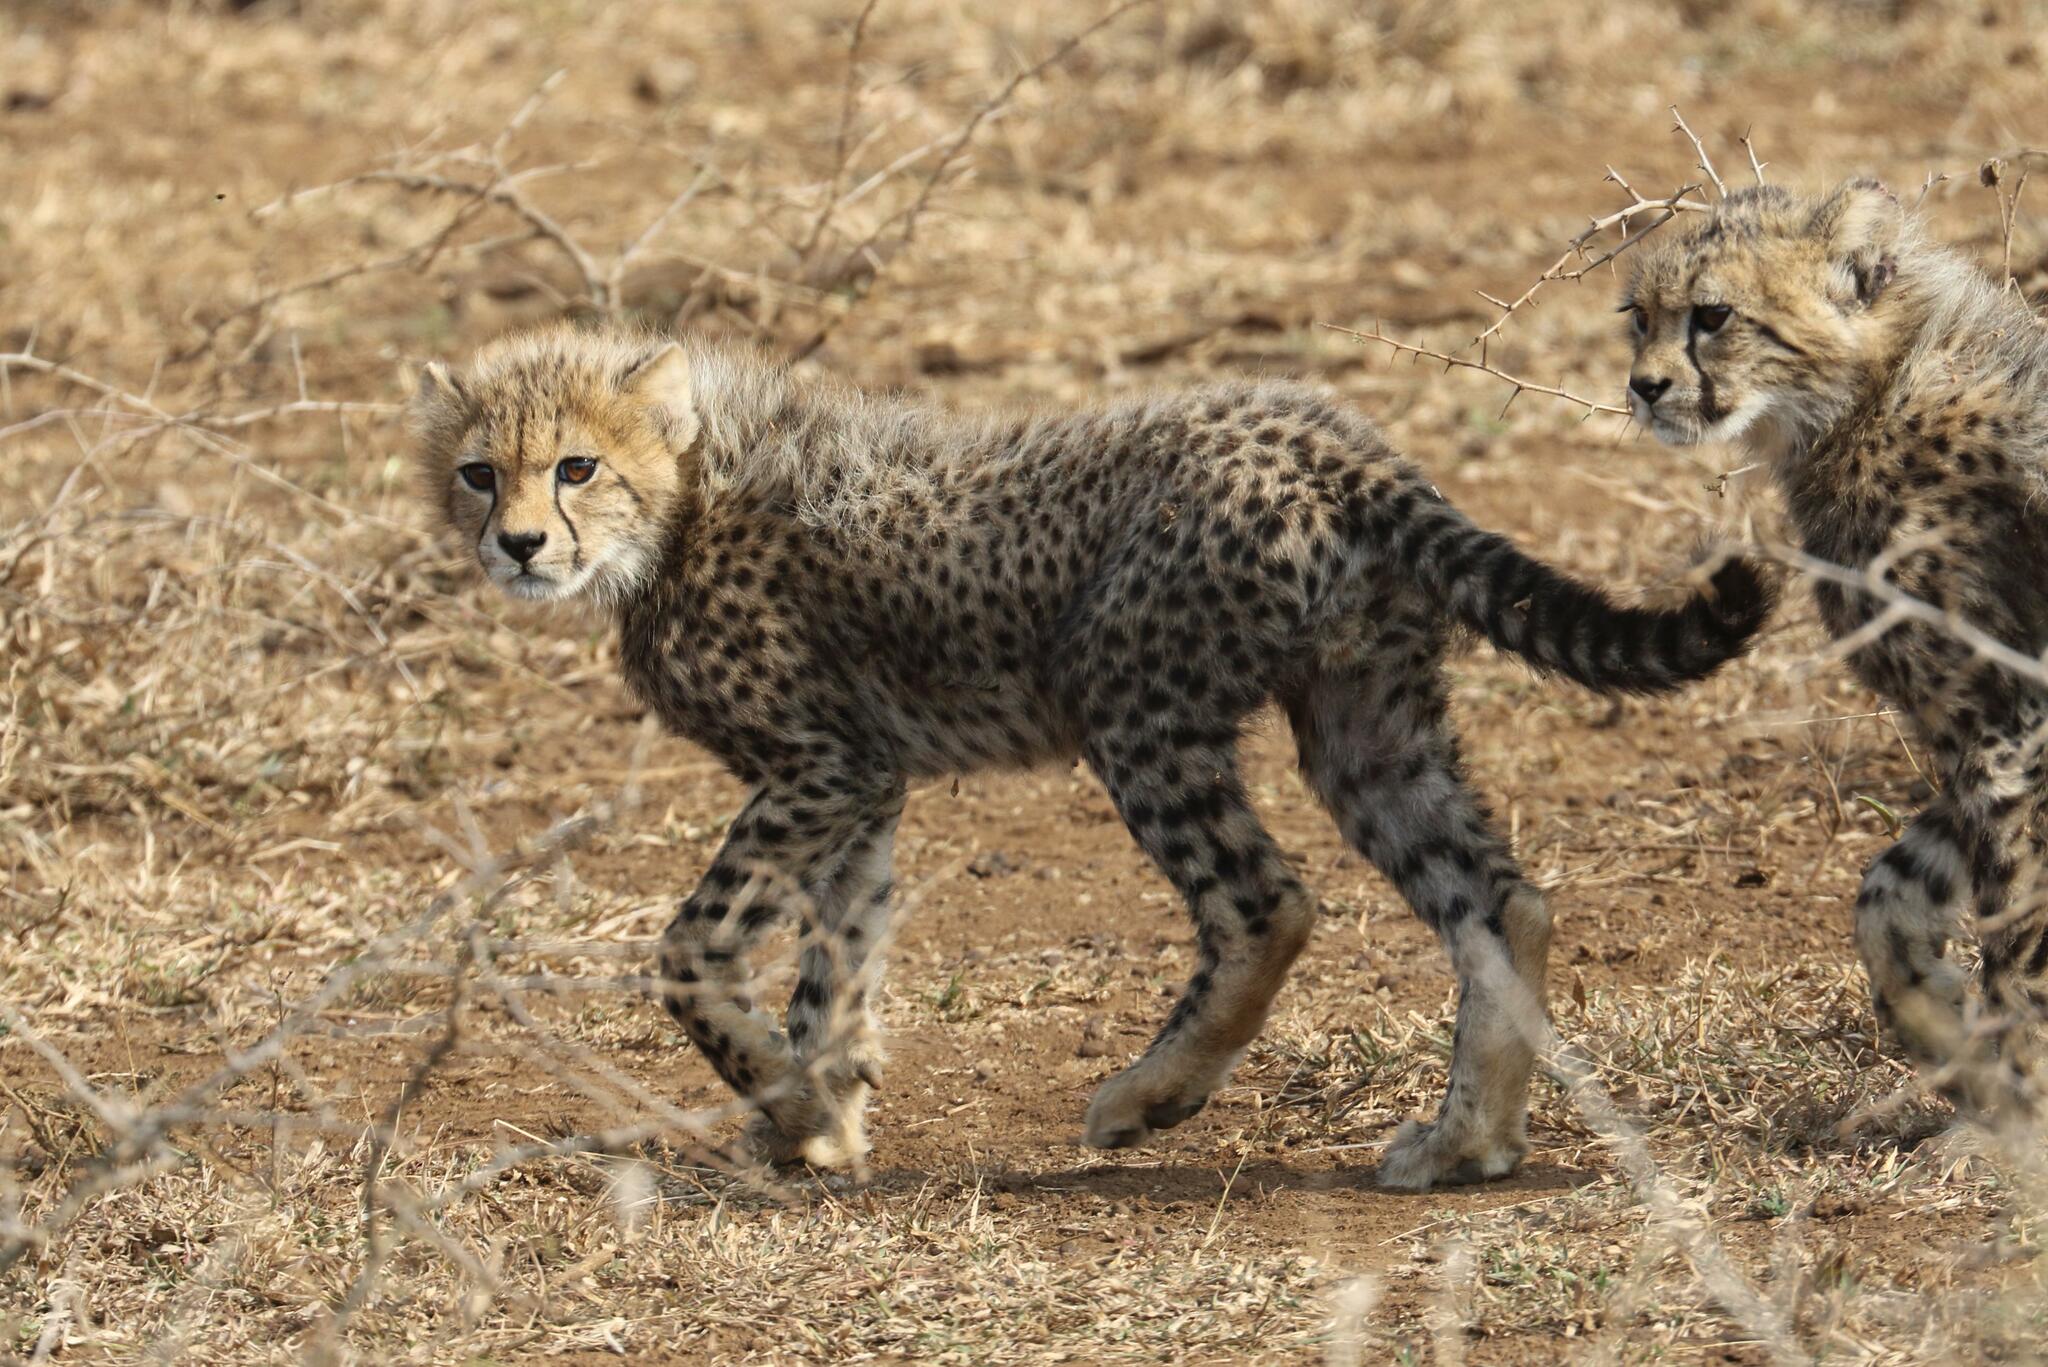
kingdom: Animalia
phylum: Chordata
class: Mammalia
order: Carnivora
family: Felidae
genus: Acinonyx
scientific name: Acinonyx jubatus
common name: Cheetah
